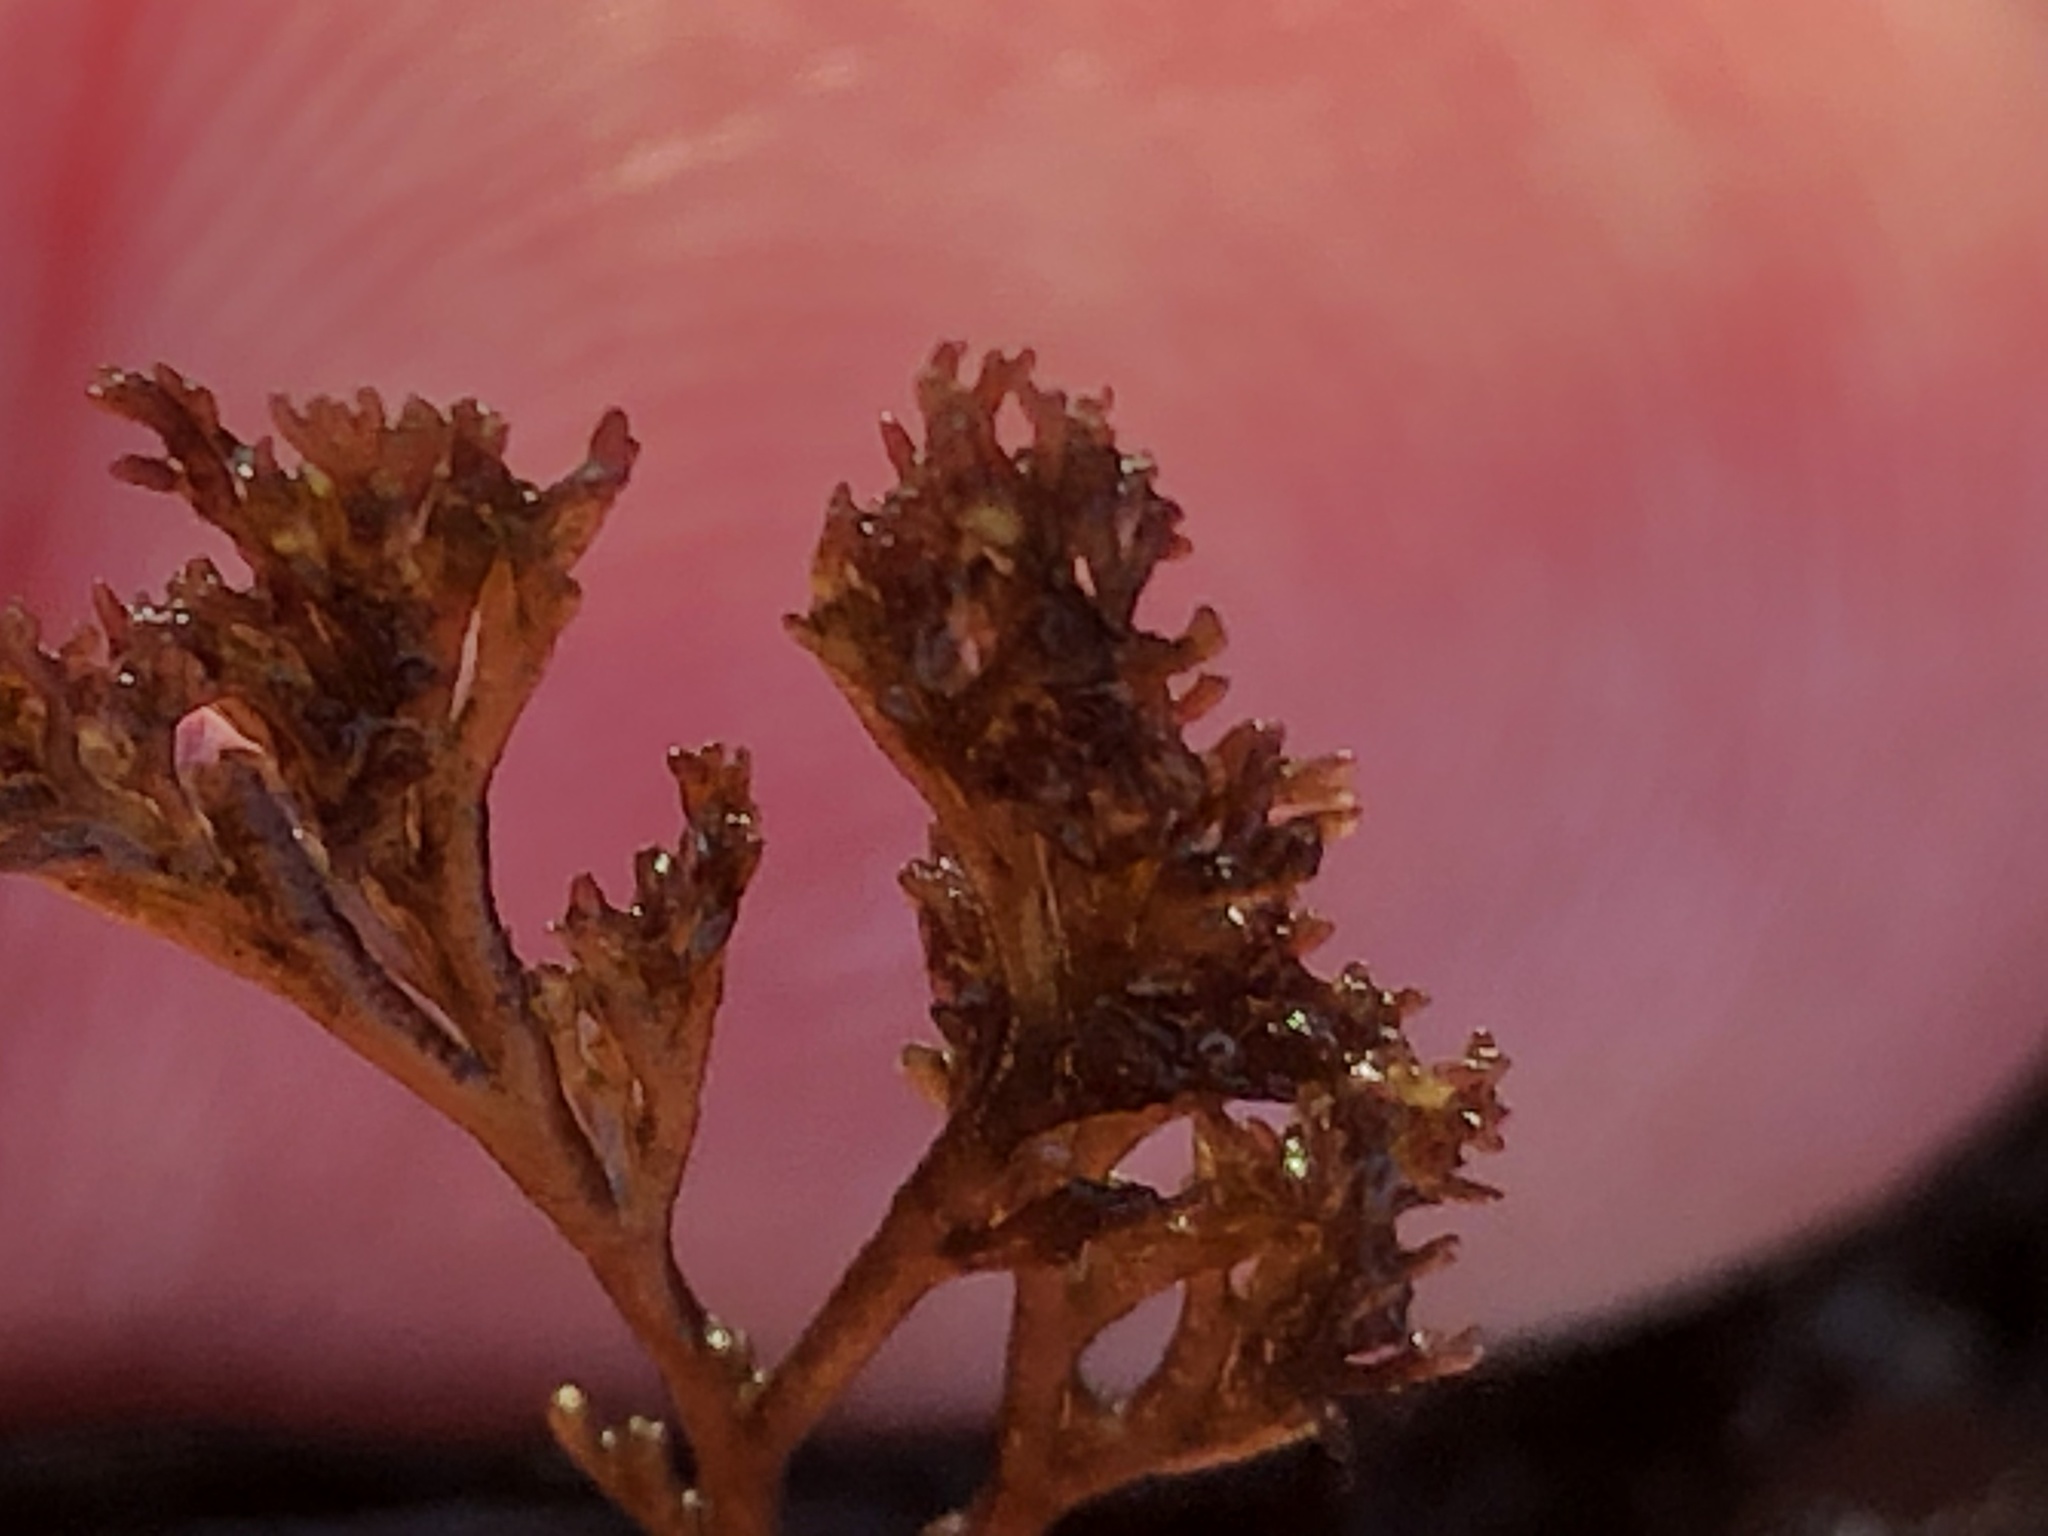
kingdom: Plantae
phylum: Rhodophyta
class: Florideophyceae
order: Ceramiales
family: Ceramiaceae
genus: Microcladia
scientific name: Microcladia borealis
